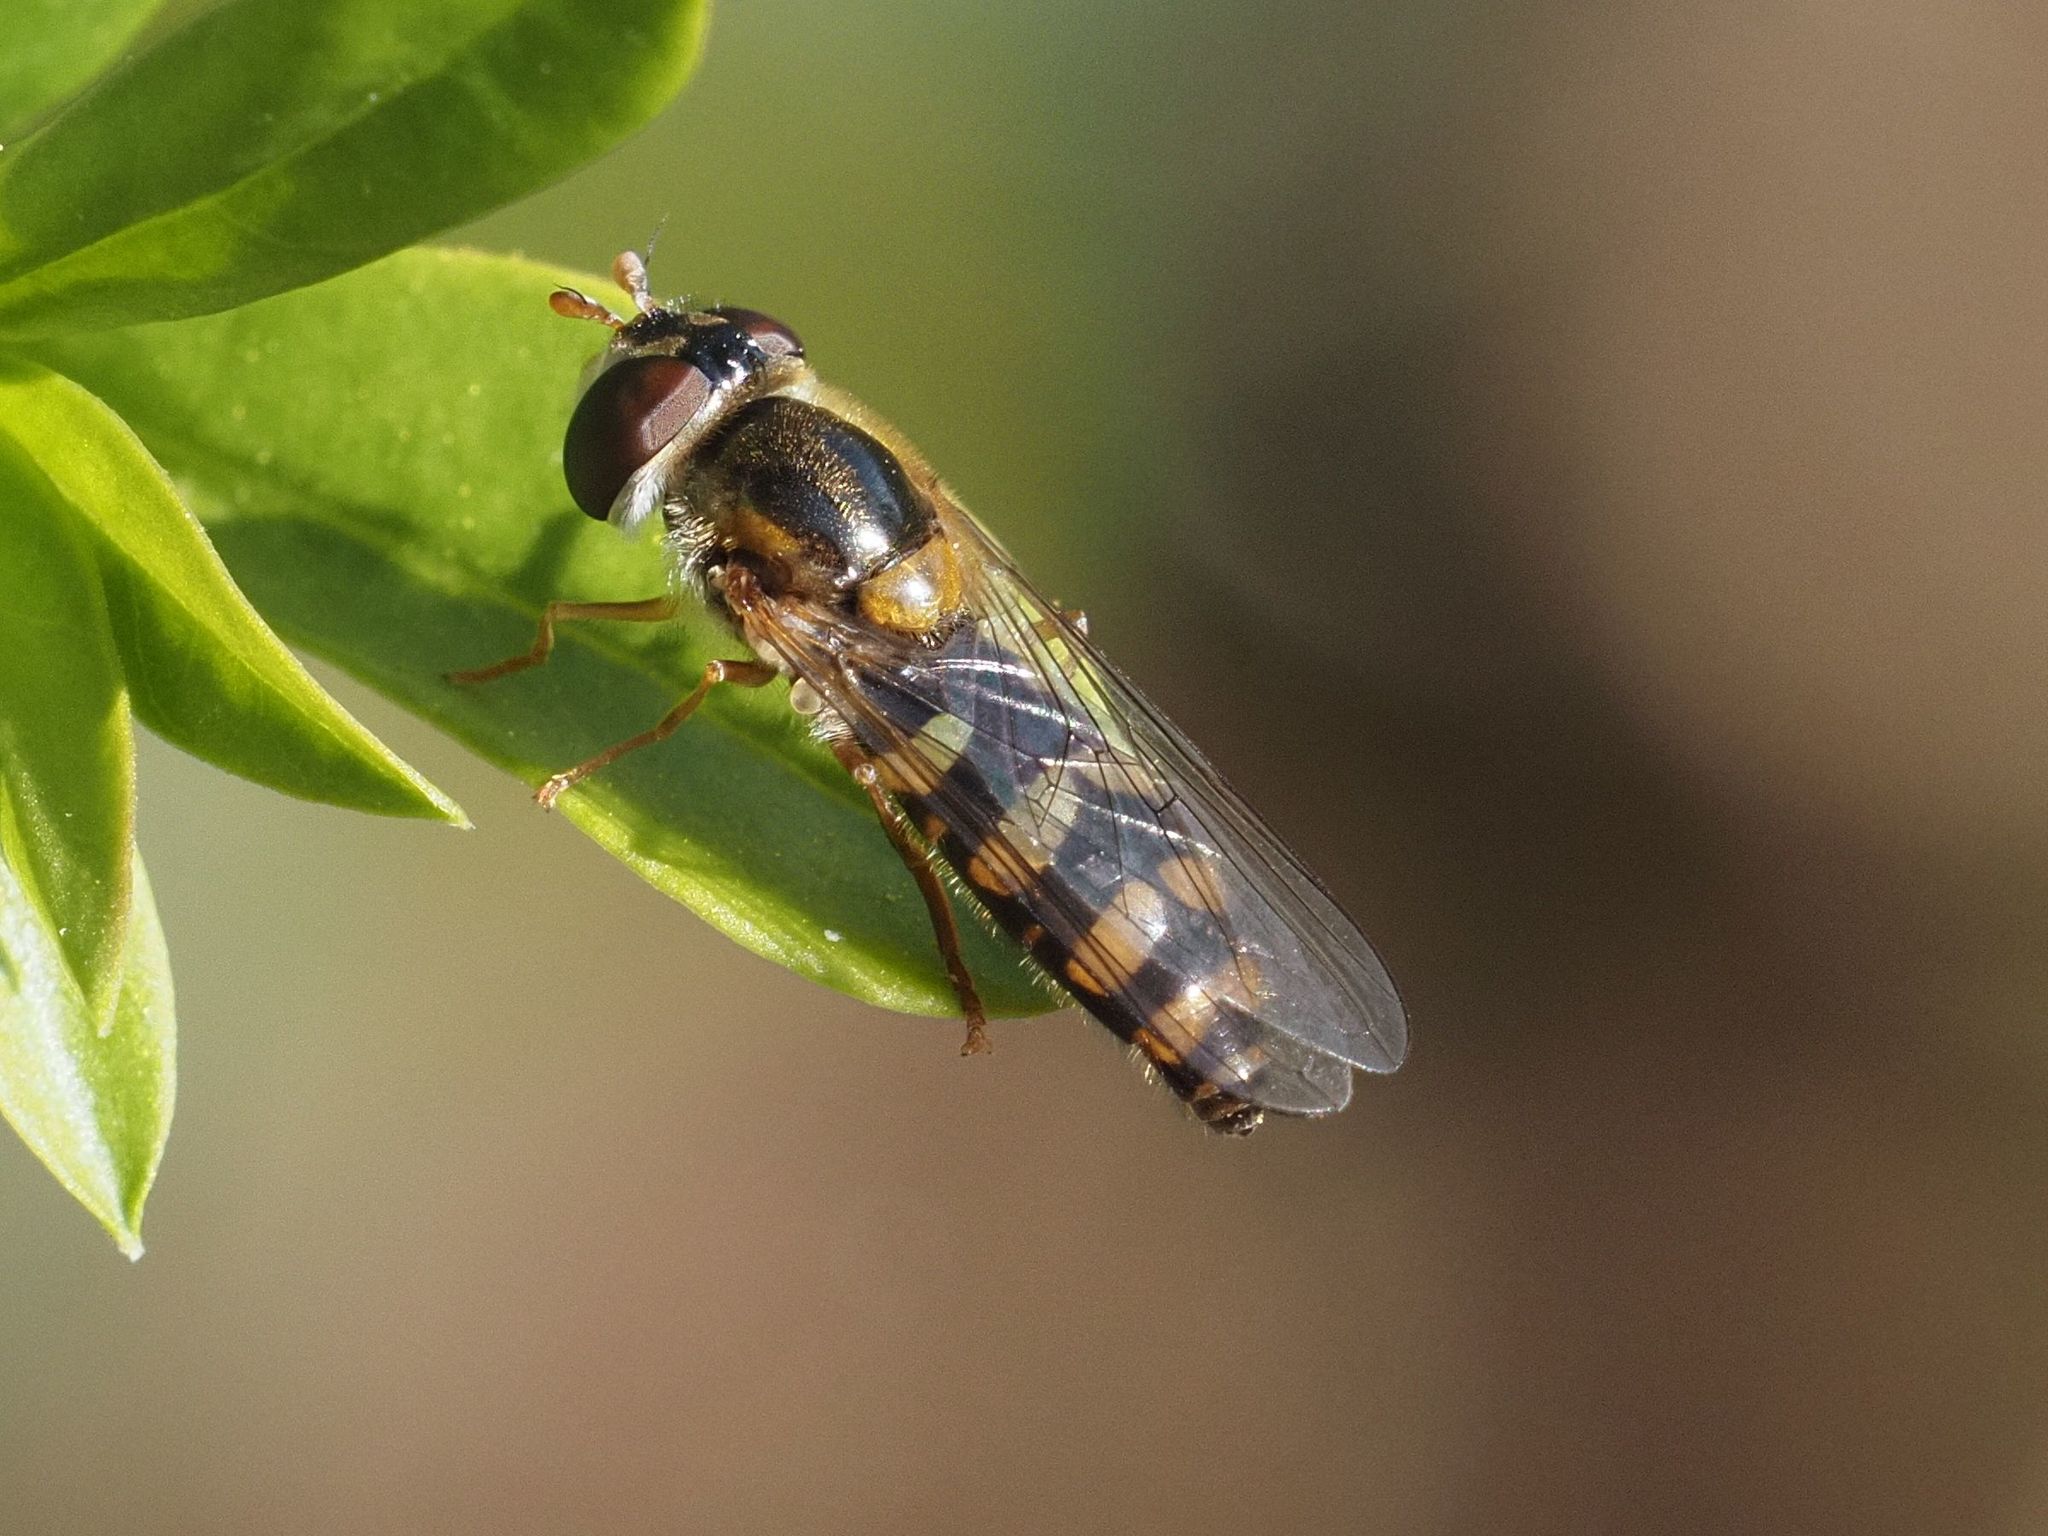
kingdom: Animalia
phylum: Arthropoda
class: Insecta
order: Diptera
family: Syrphidae
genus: Epistrophella
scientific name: Epistrophella euchromus
